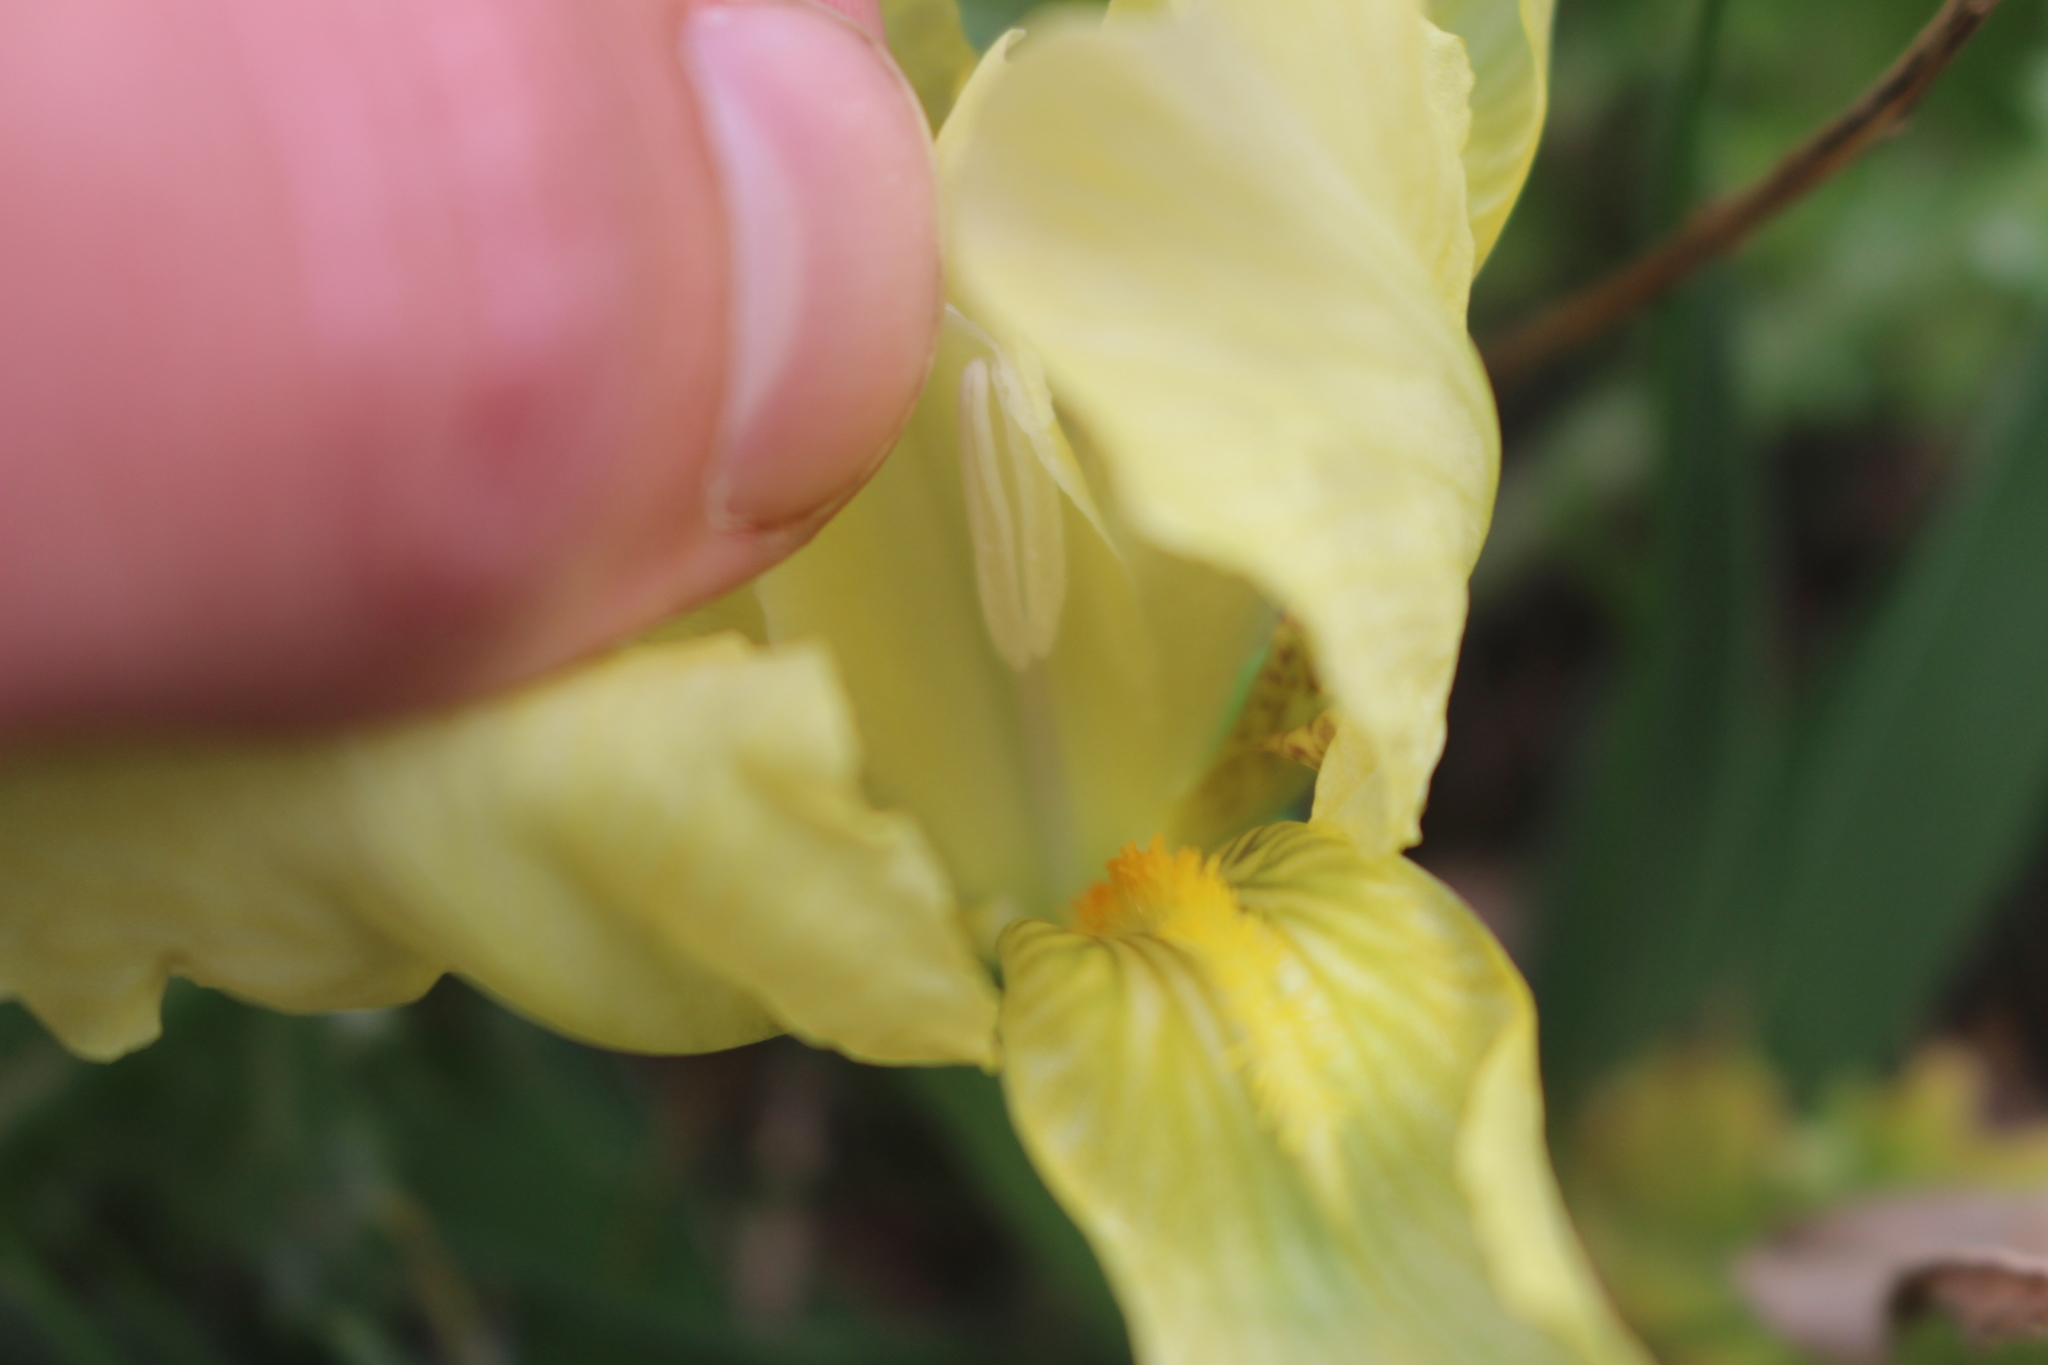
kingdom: Plantae
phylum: Tracheophyta
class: Liliopsida
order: Asparagales
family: Iridaceae
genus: Iris
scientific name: Iris lutescens
